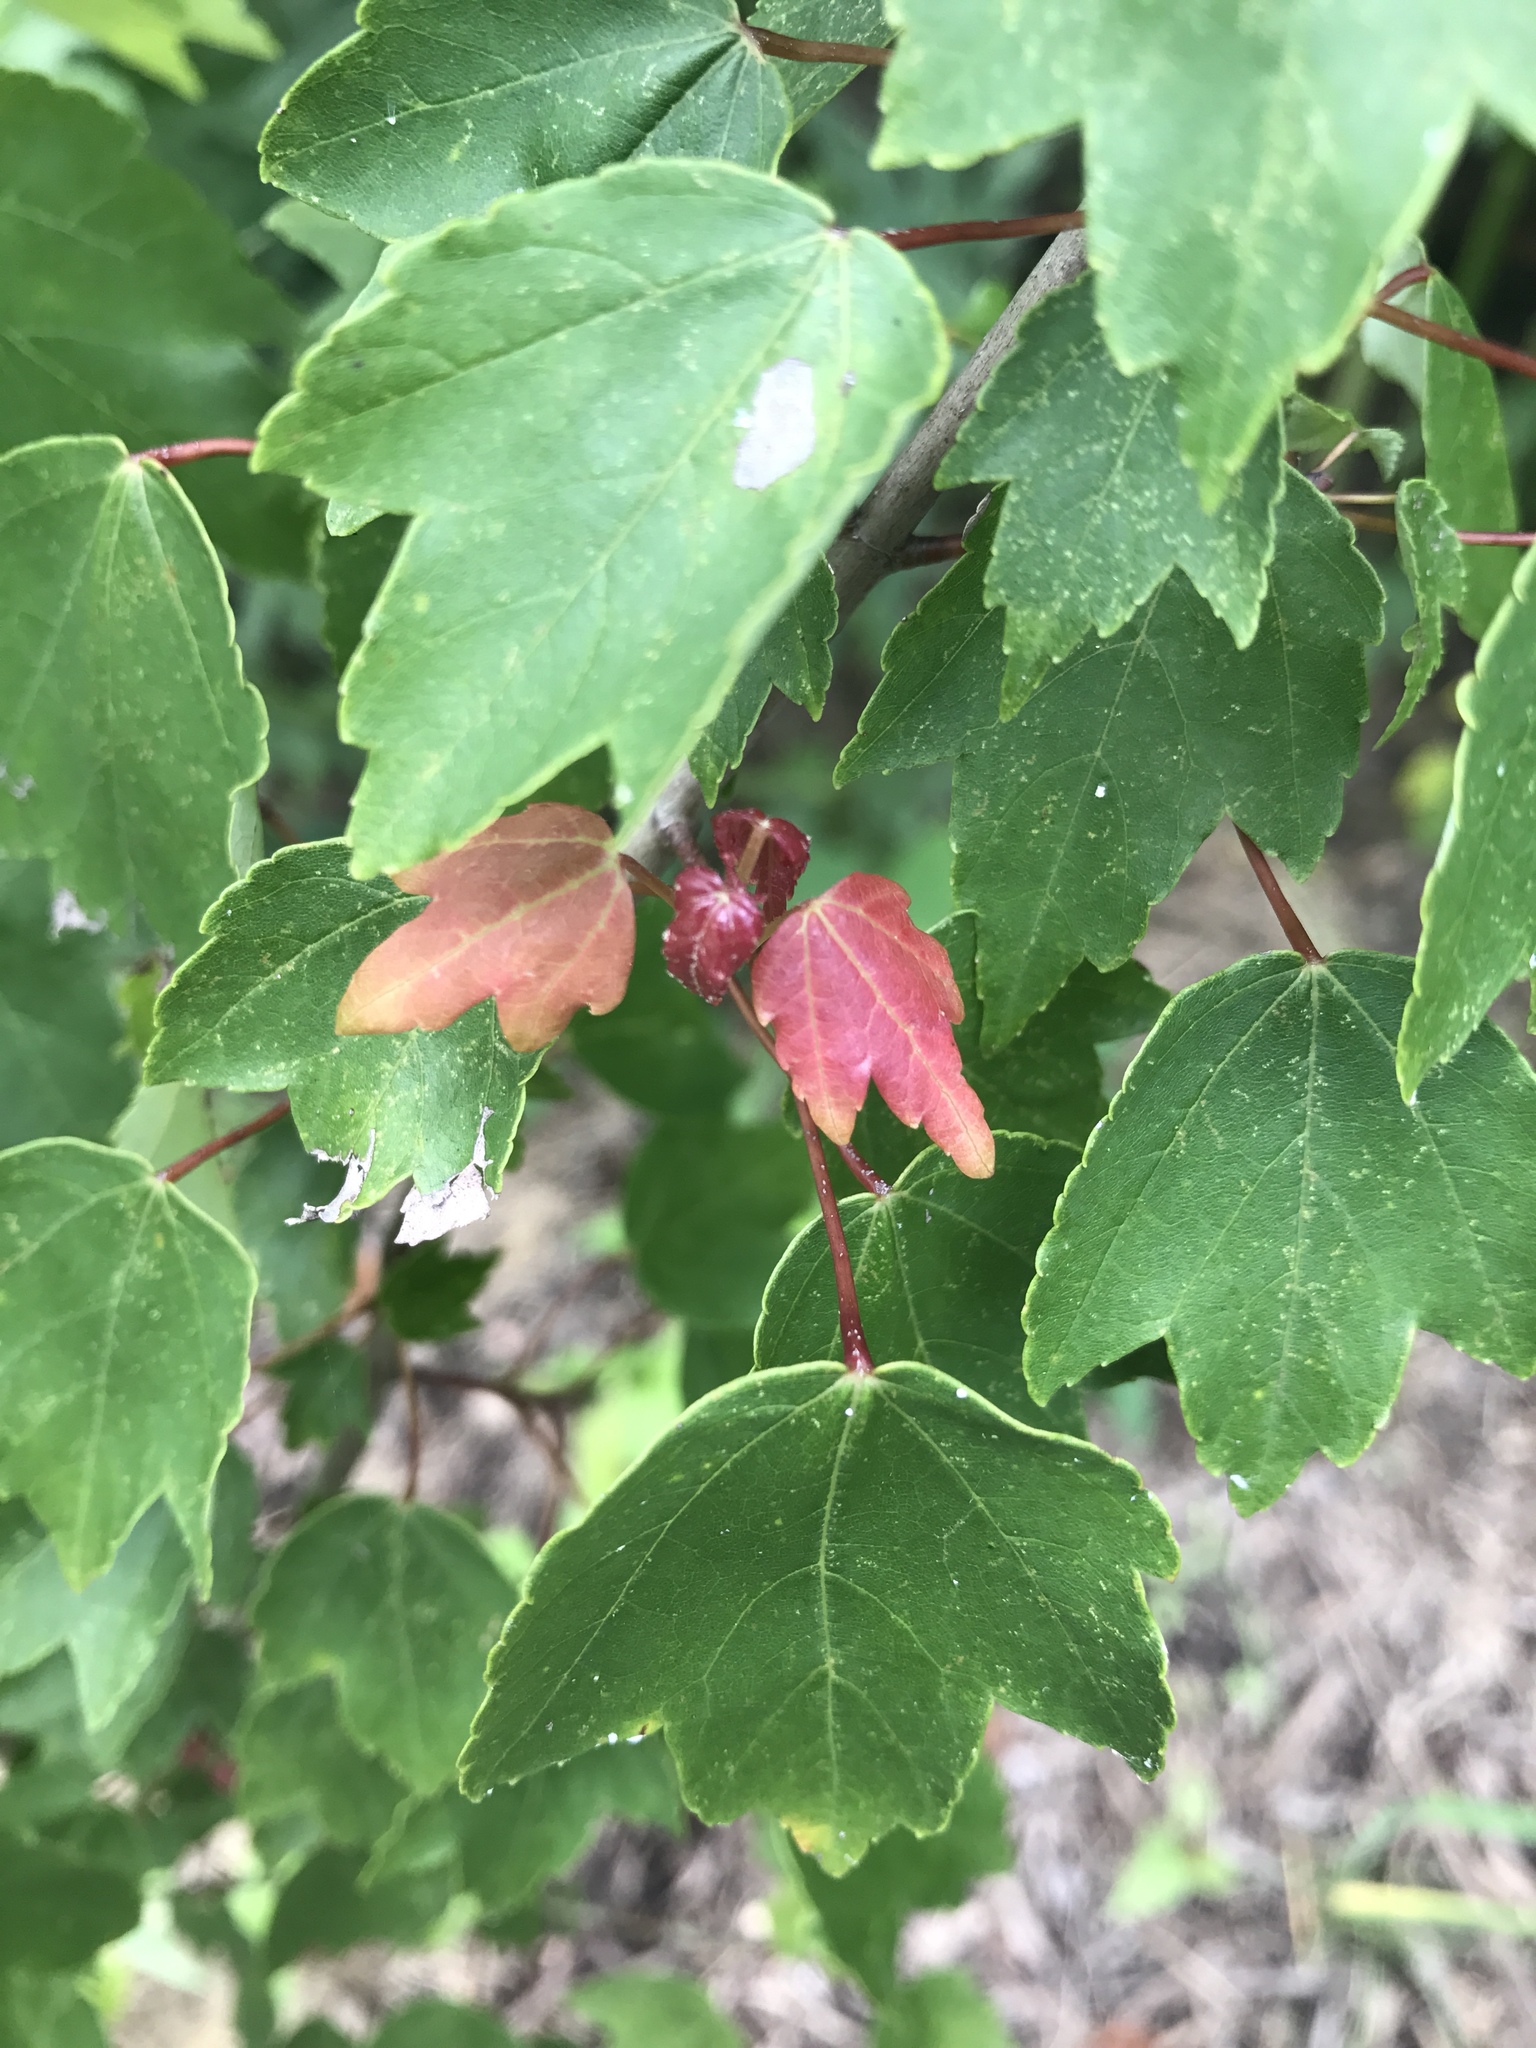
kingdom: Plantae
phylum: Tracheophyta
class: Magnoliopsida
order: Sapindales
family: Sapindaceae
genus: Acer
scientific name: Acer rubrum
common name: Red maple
